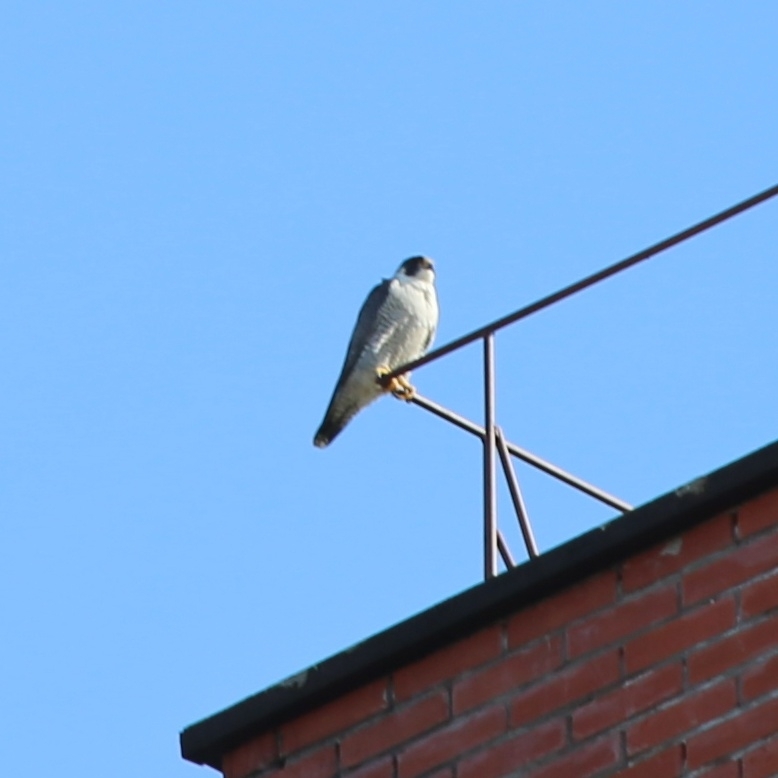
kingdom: Animalia
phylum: Chordata
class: Aves
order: Falconiformes
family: Falconidae
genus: Falco
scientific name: Falco peregrinus
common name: Peregrine falcon
